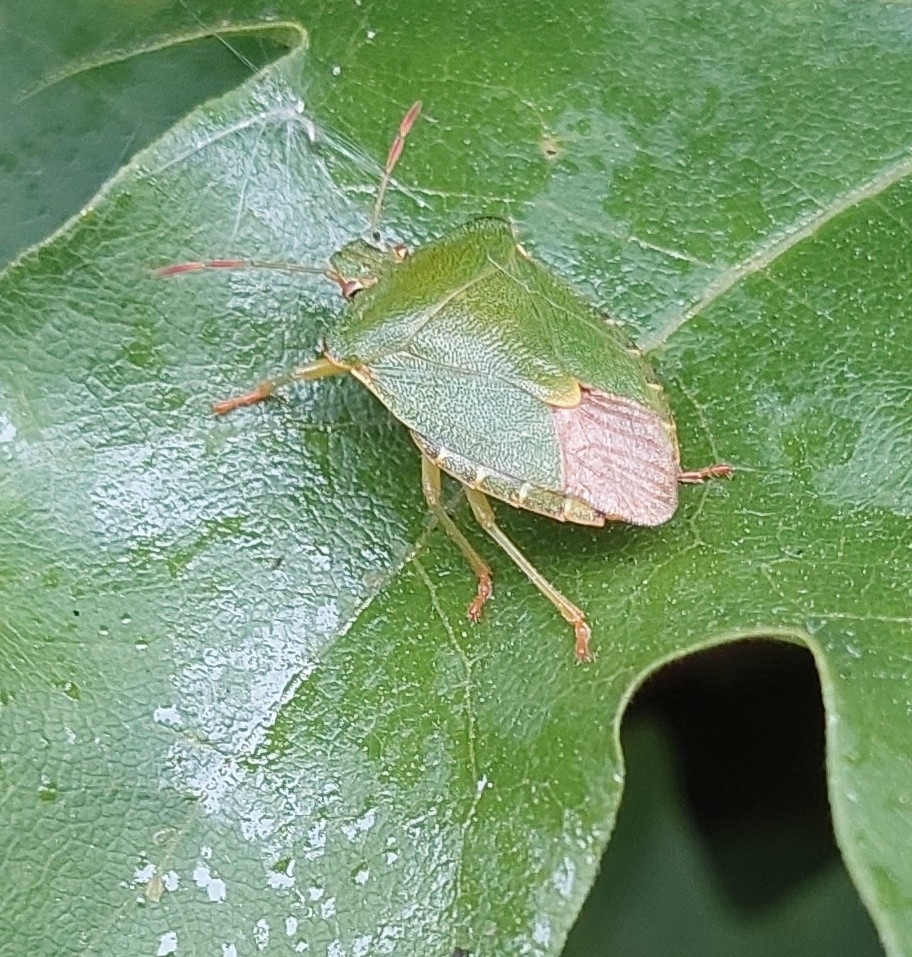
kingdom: Animalia
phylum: Arthropoda
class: Insecta
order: Hemiptera
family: Pentatomidae
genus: Palomena
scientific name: Palomena prasina
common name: Green shieldbug
